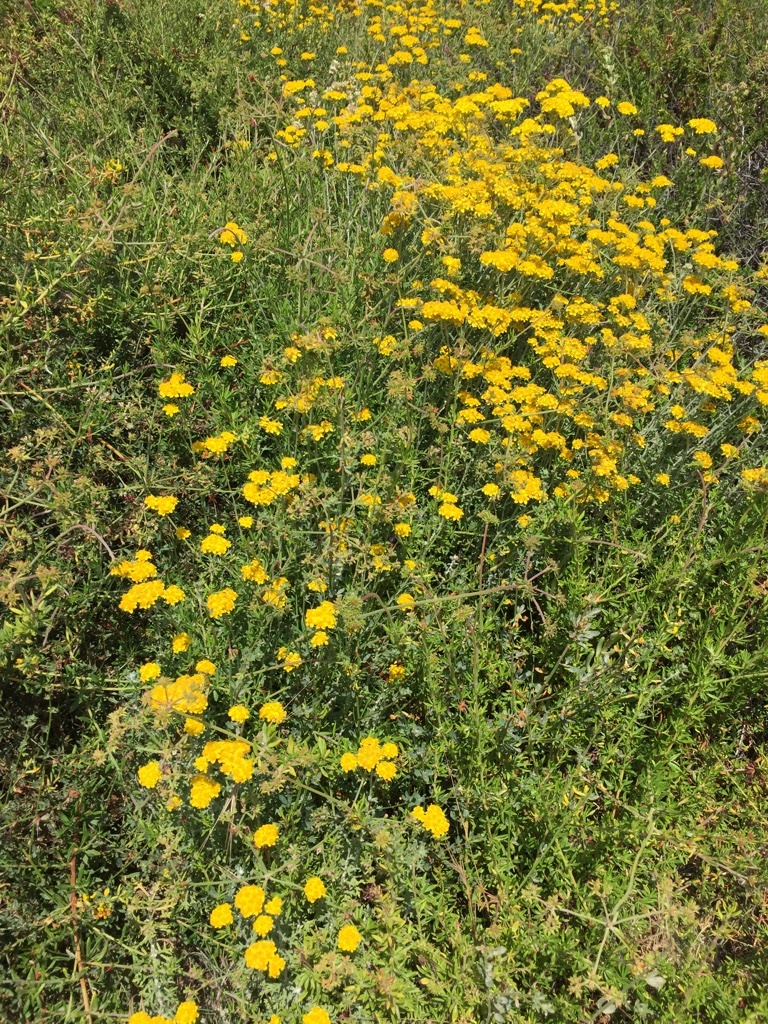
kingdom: Plantae
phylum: Tracheophyta
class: Magnoliopsida
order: Asterales
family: Asteraceae
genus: Eriophyllum
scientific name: Eriophyllum confertiflorum
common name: Golden-yarrow
